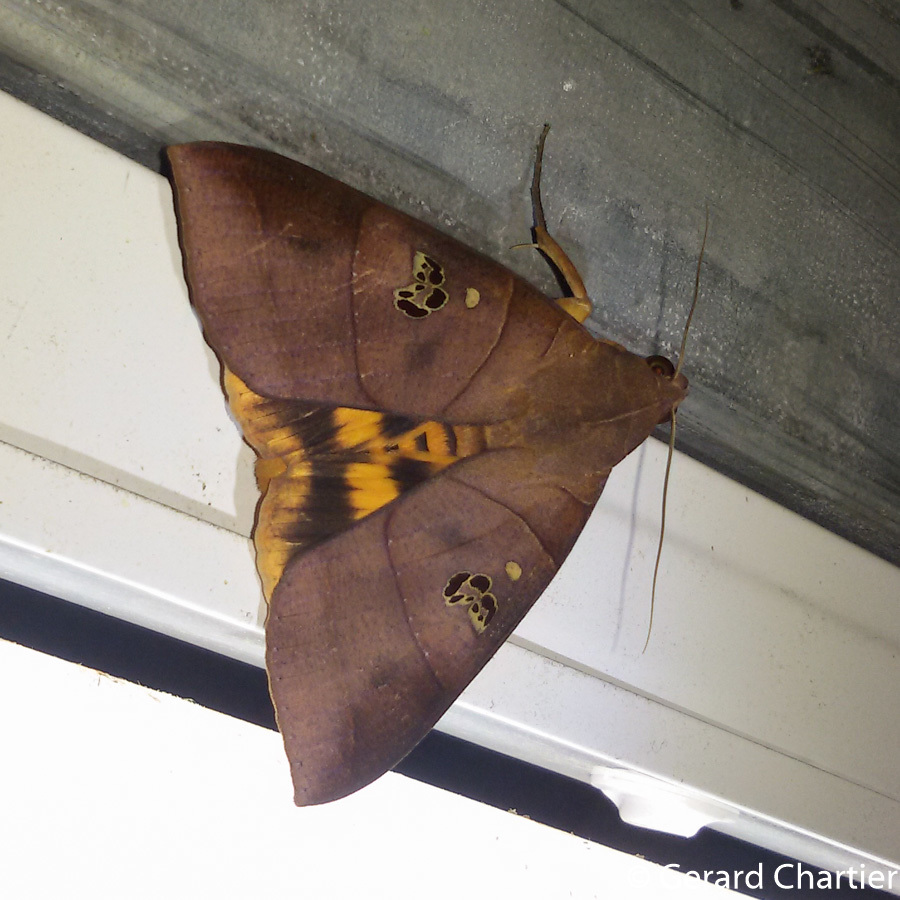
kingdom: Animalia
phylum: Arthropoda
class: Insecta
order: Lepidoptera
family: Erebidae
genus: Thyas
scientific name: Thyas coronata
